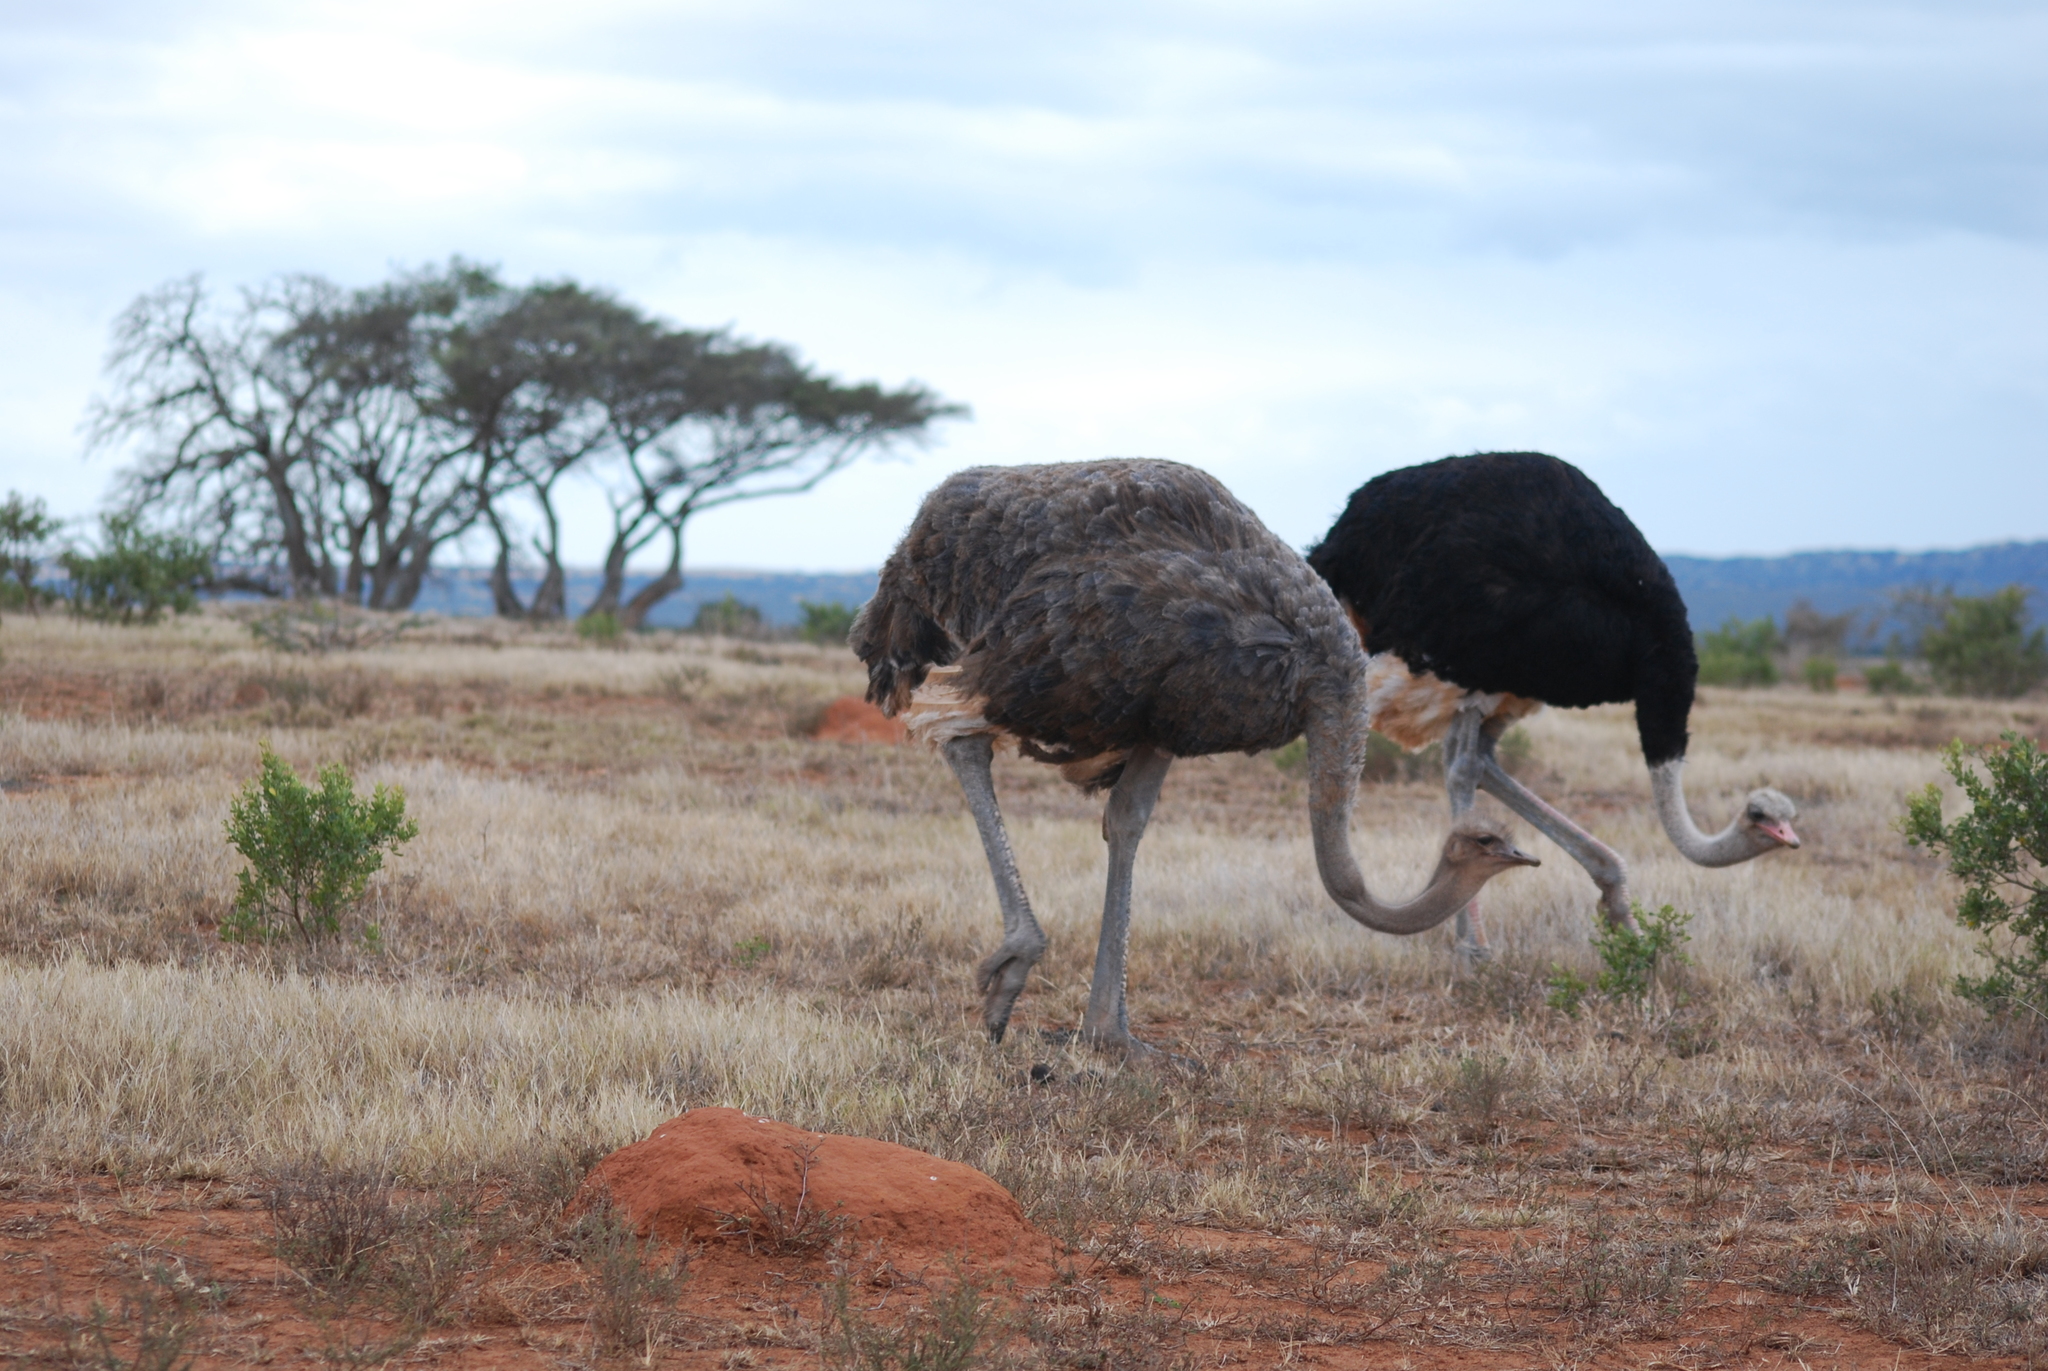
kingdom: Animalia
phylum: Chordata
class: Aves
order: Struthioniformes
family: Struthionidae
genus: Struthio
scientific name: Struthio camelus
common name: Common ostrich
